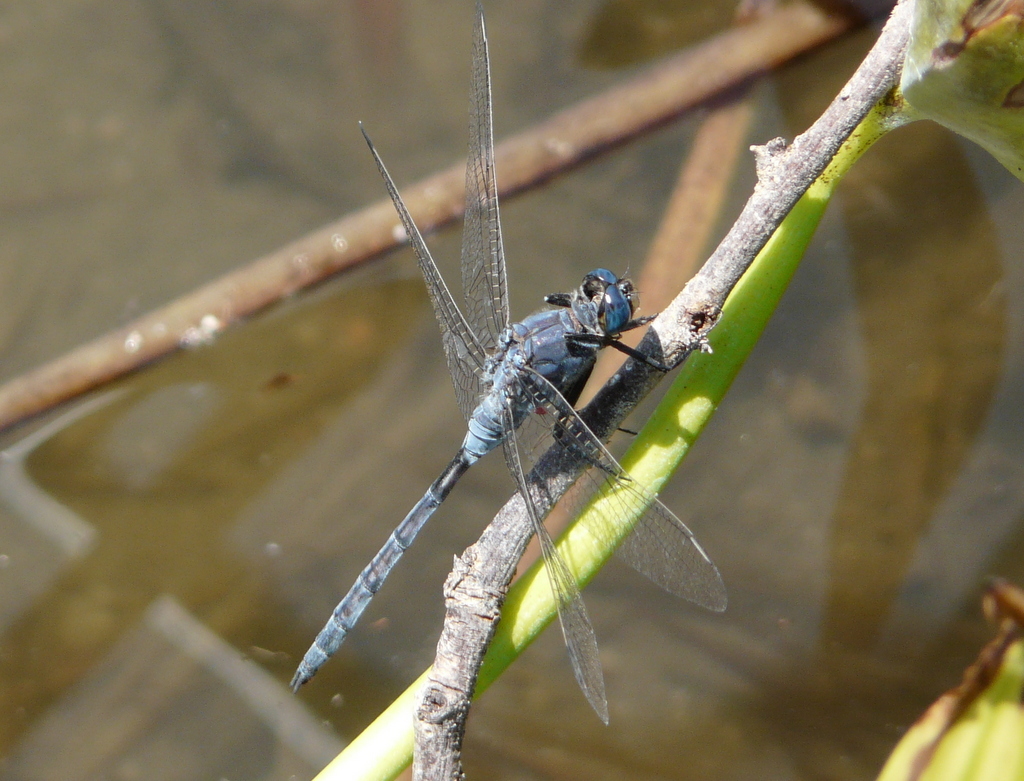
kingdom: Animalia
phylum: Arthropoda
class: Insecta
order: Odonata
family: Libellulidae
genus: Orthetrum
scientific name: Orthetrum trinacria
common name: Long skimmer
